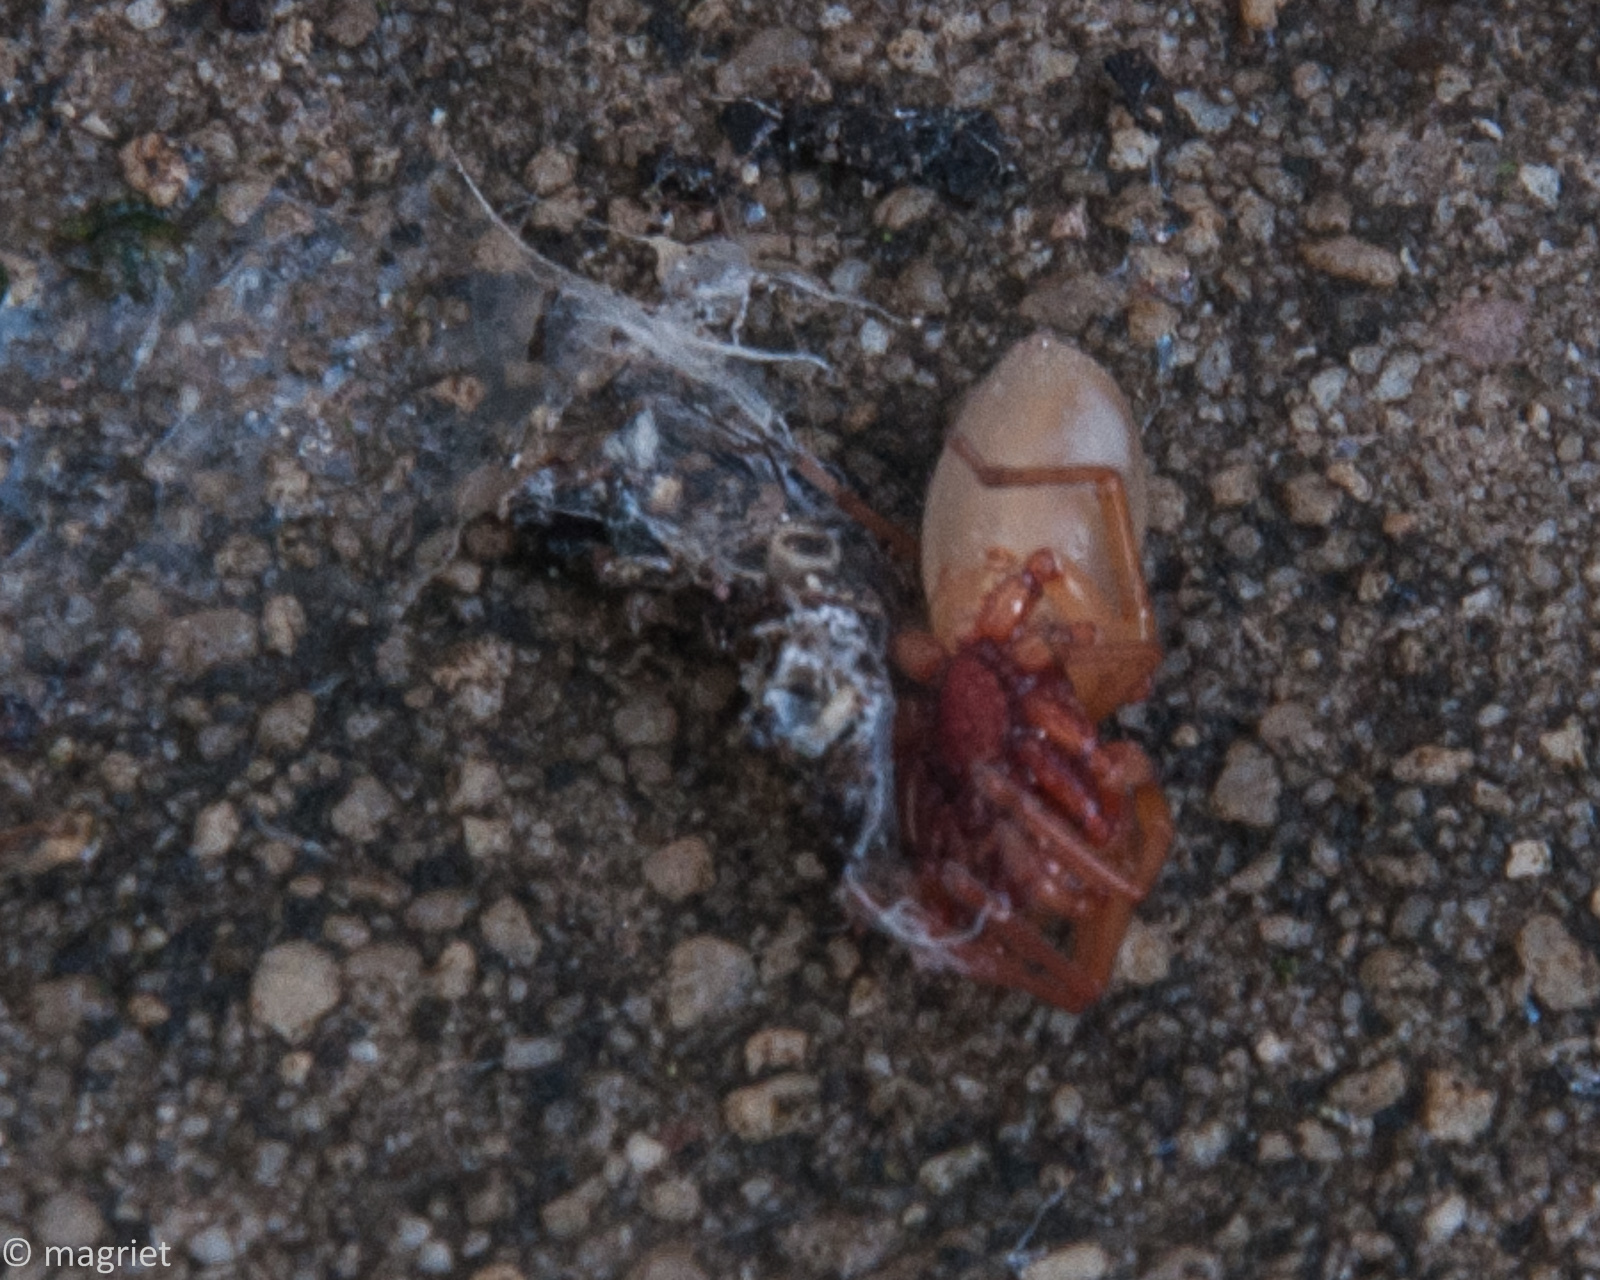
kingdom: Animalia
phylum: Arthropoda
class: Arachnida
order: Araneae
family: Dysderidae
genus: Dysdera
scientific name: Dysdera crocata
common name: Woodlouse spider
